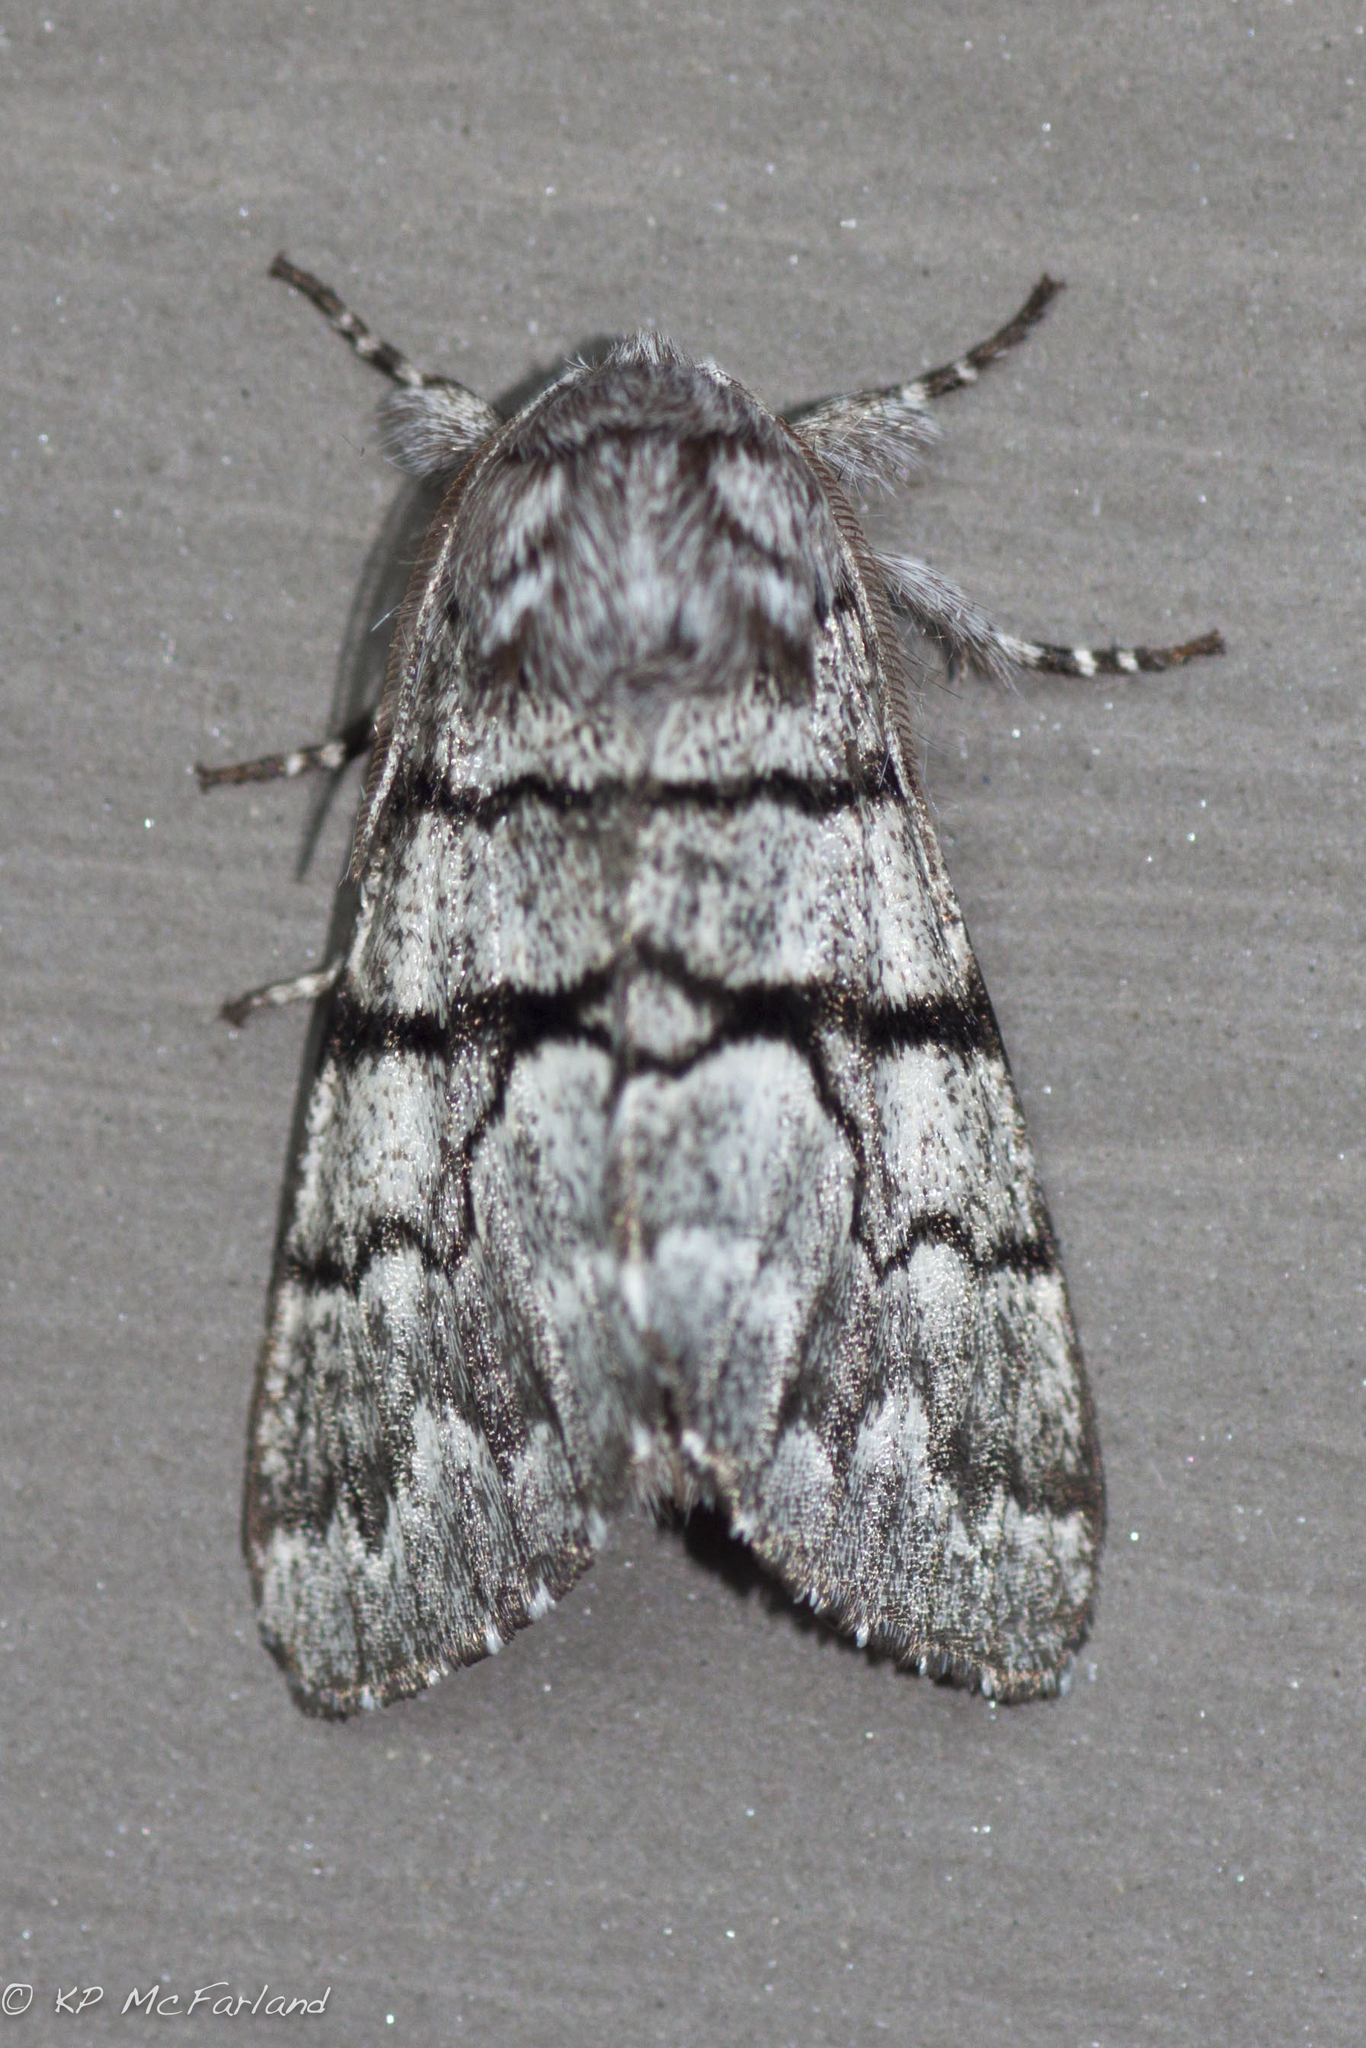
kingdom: Animalia
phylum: Arthropoda
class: Insecta
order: Lepidoptera
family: Noctuidae
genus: Panthea
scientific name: Panthea furcilla
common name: Eastern panthea moth
